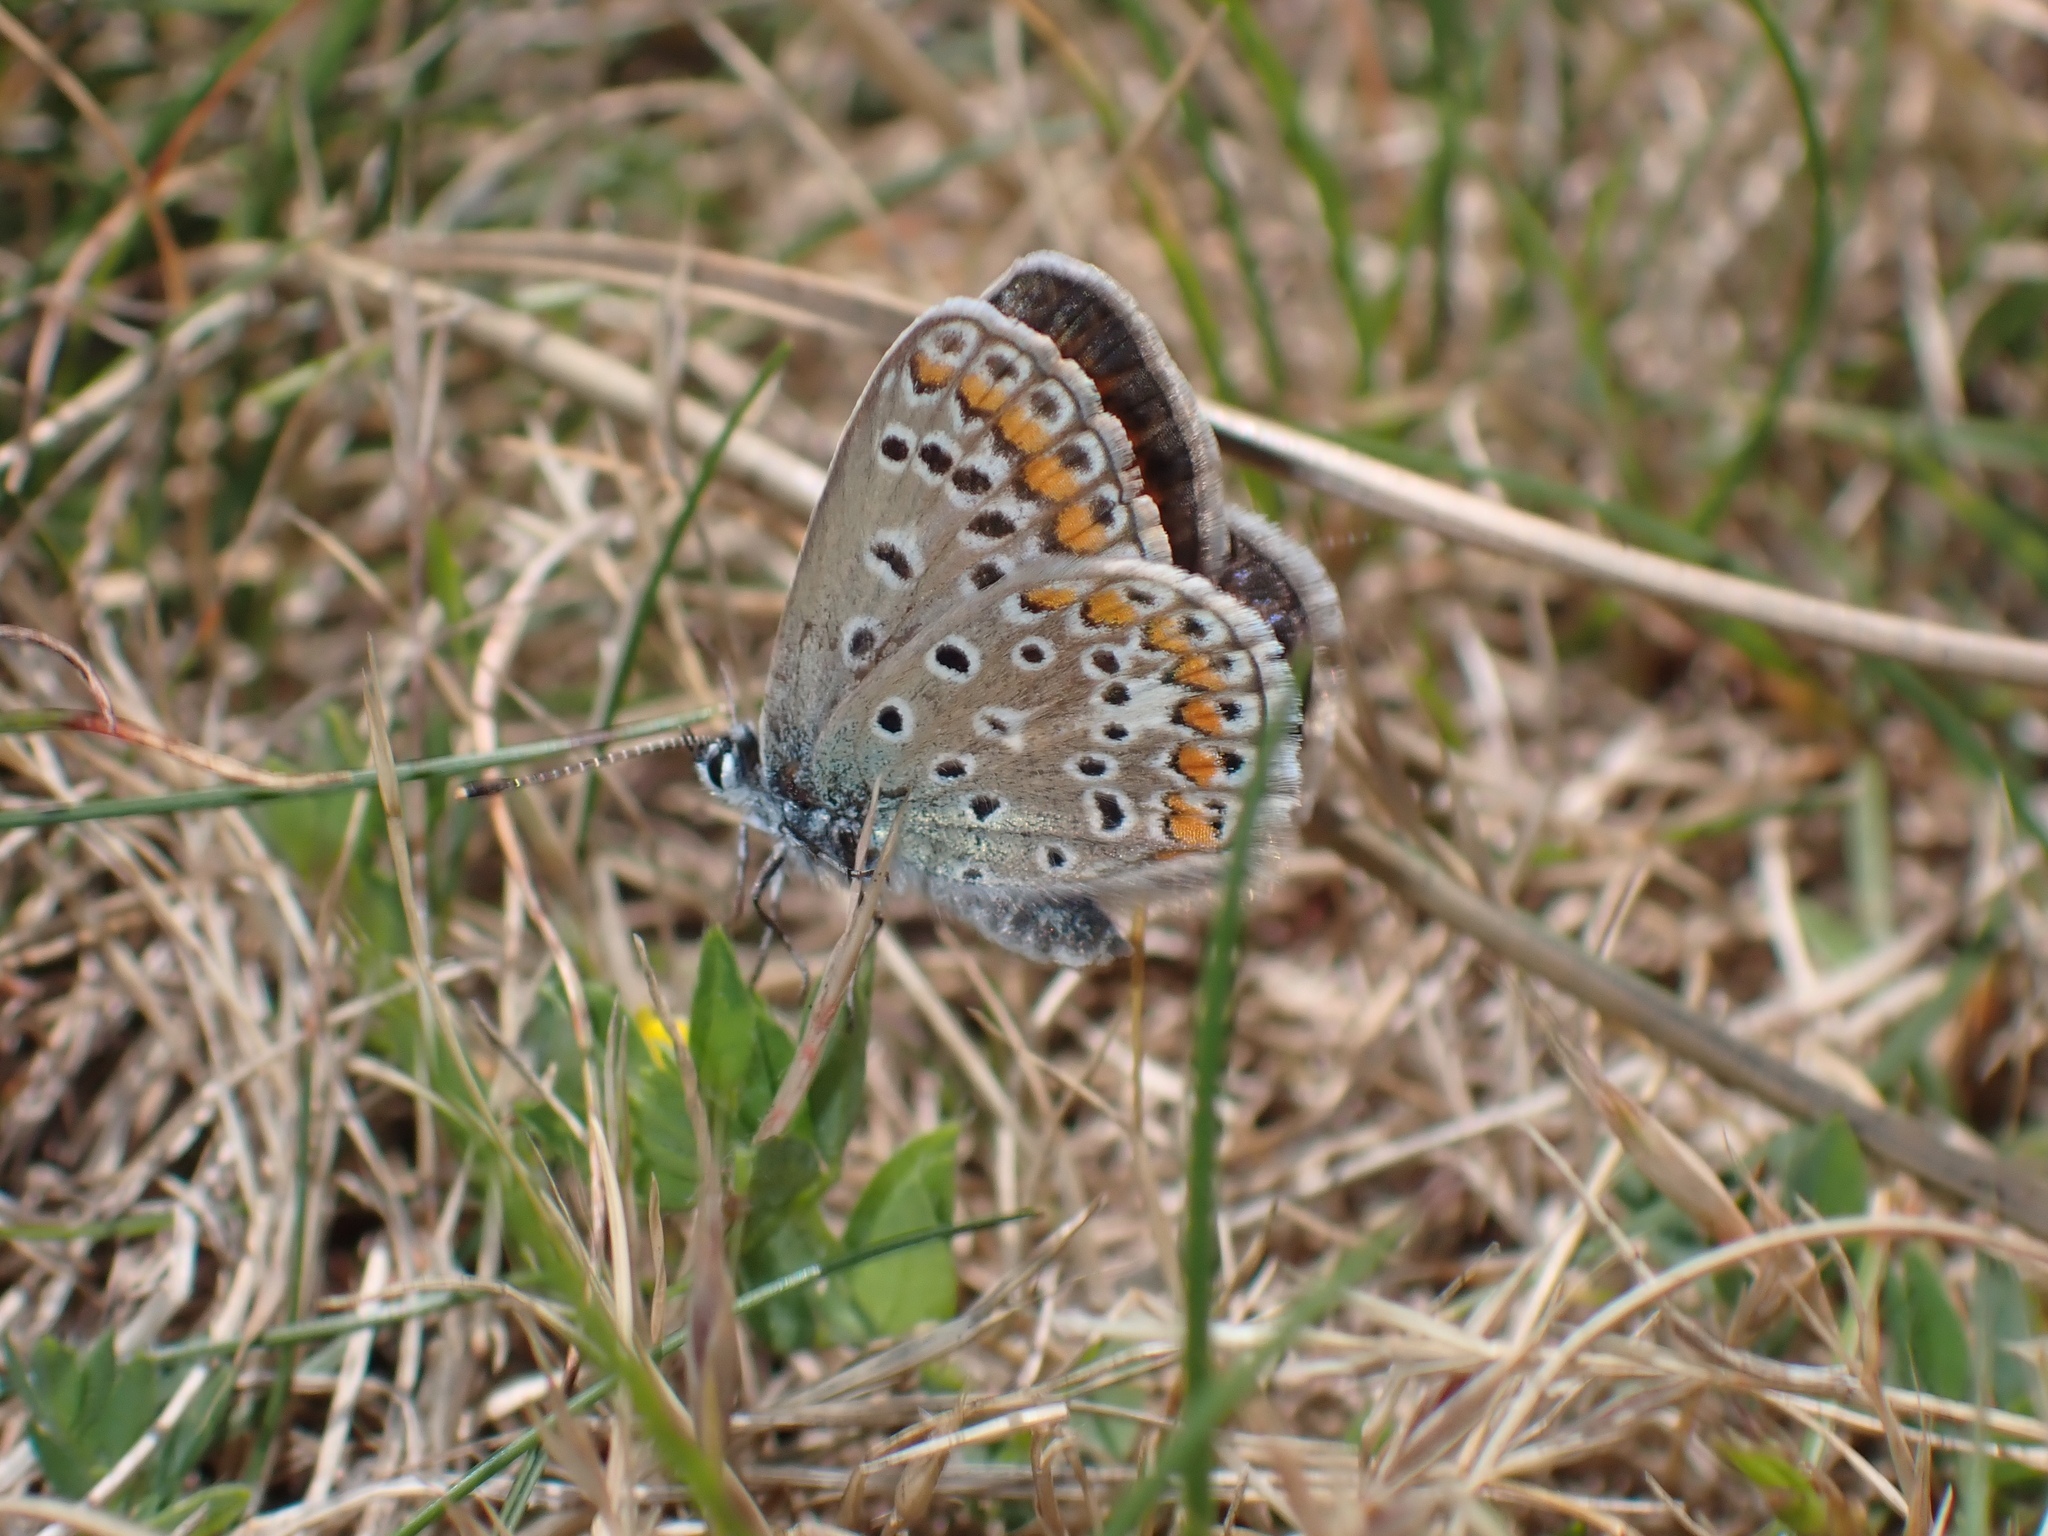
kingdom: Animalia
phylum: Arthropoda
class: Insecta
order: Lepidoptera
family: Lycaenidae
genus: Polyommatus
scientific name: Polyommatus icarus
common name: Common blue
